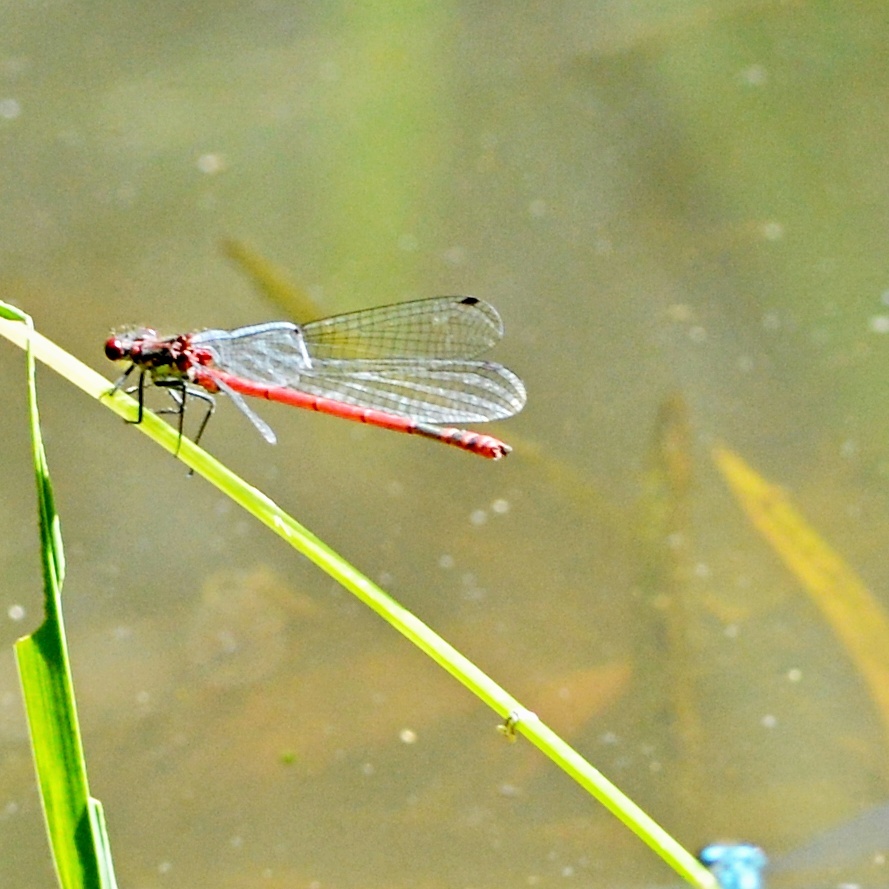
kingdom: Animalia
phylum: Arthropoda
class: Insecta
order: Odonata
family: Coenagrionidae
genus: Pyrrhosoma
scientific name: Pyrrhosoma nymphula
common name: Large red damsel
